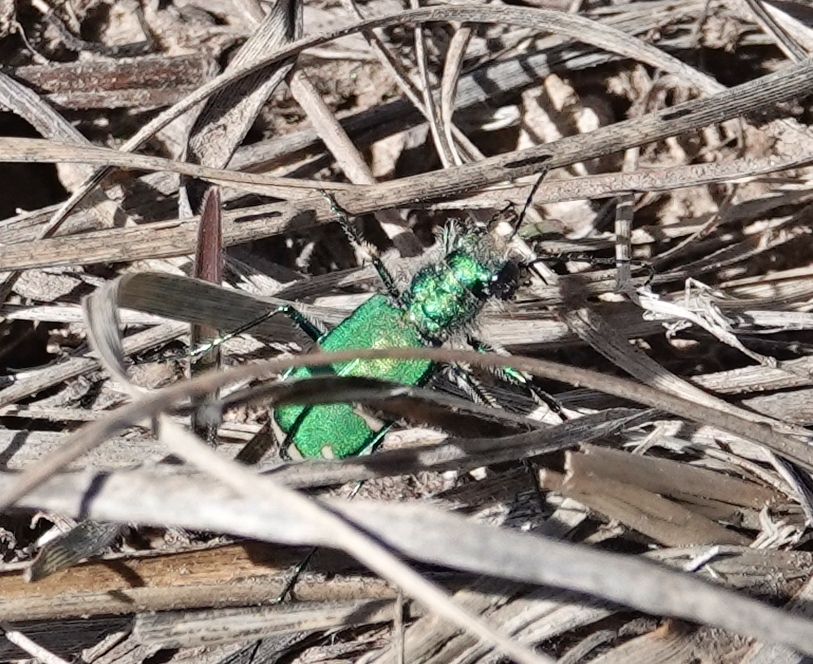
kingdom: Animalia
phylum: Arthropoda
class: Insecta
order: Coleoptera
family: Carabidae
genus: Cicindela
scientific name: Cicindela denverensis
